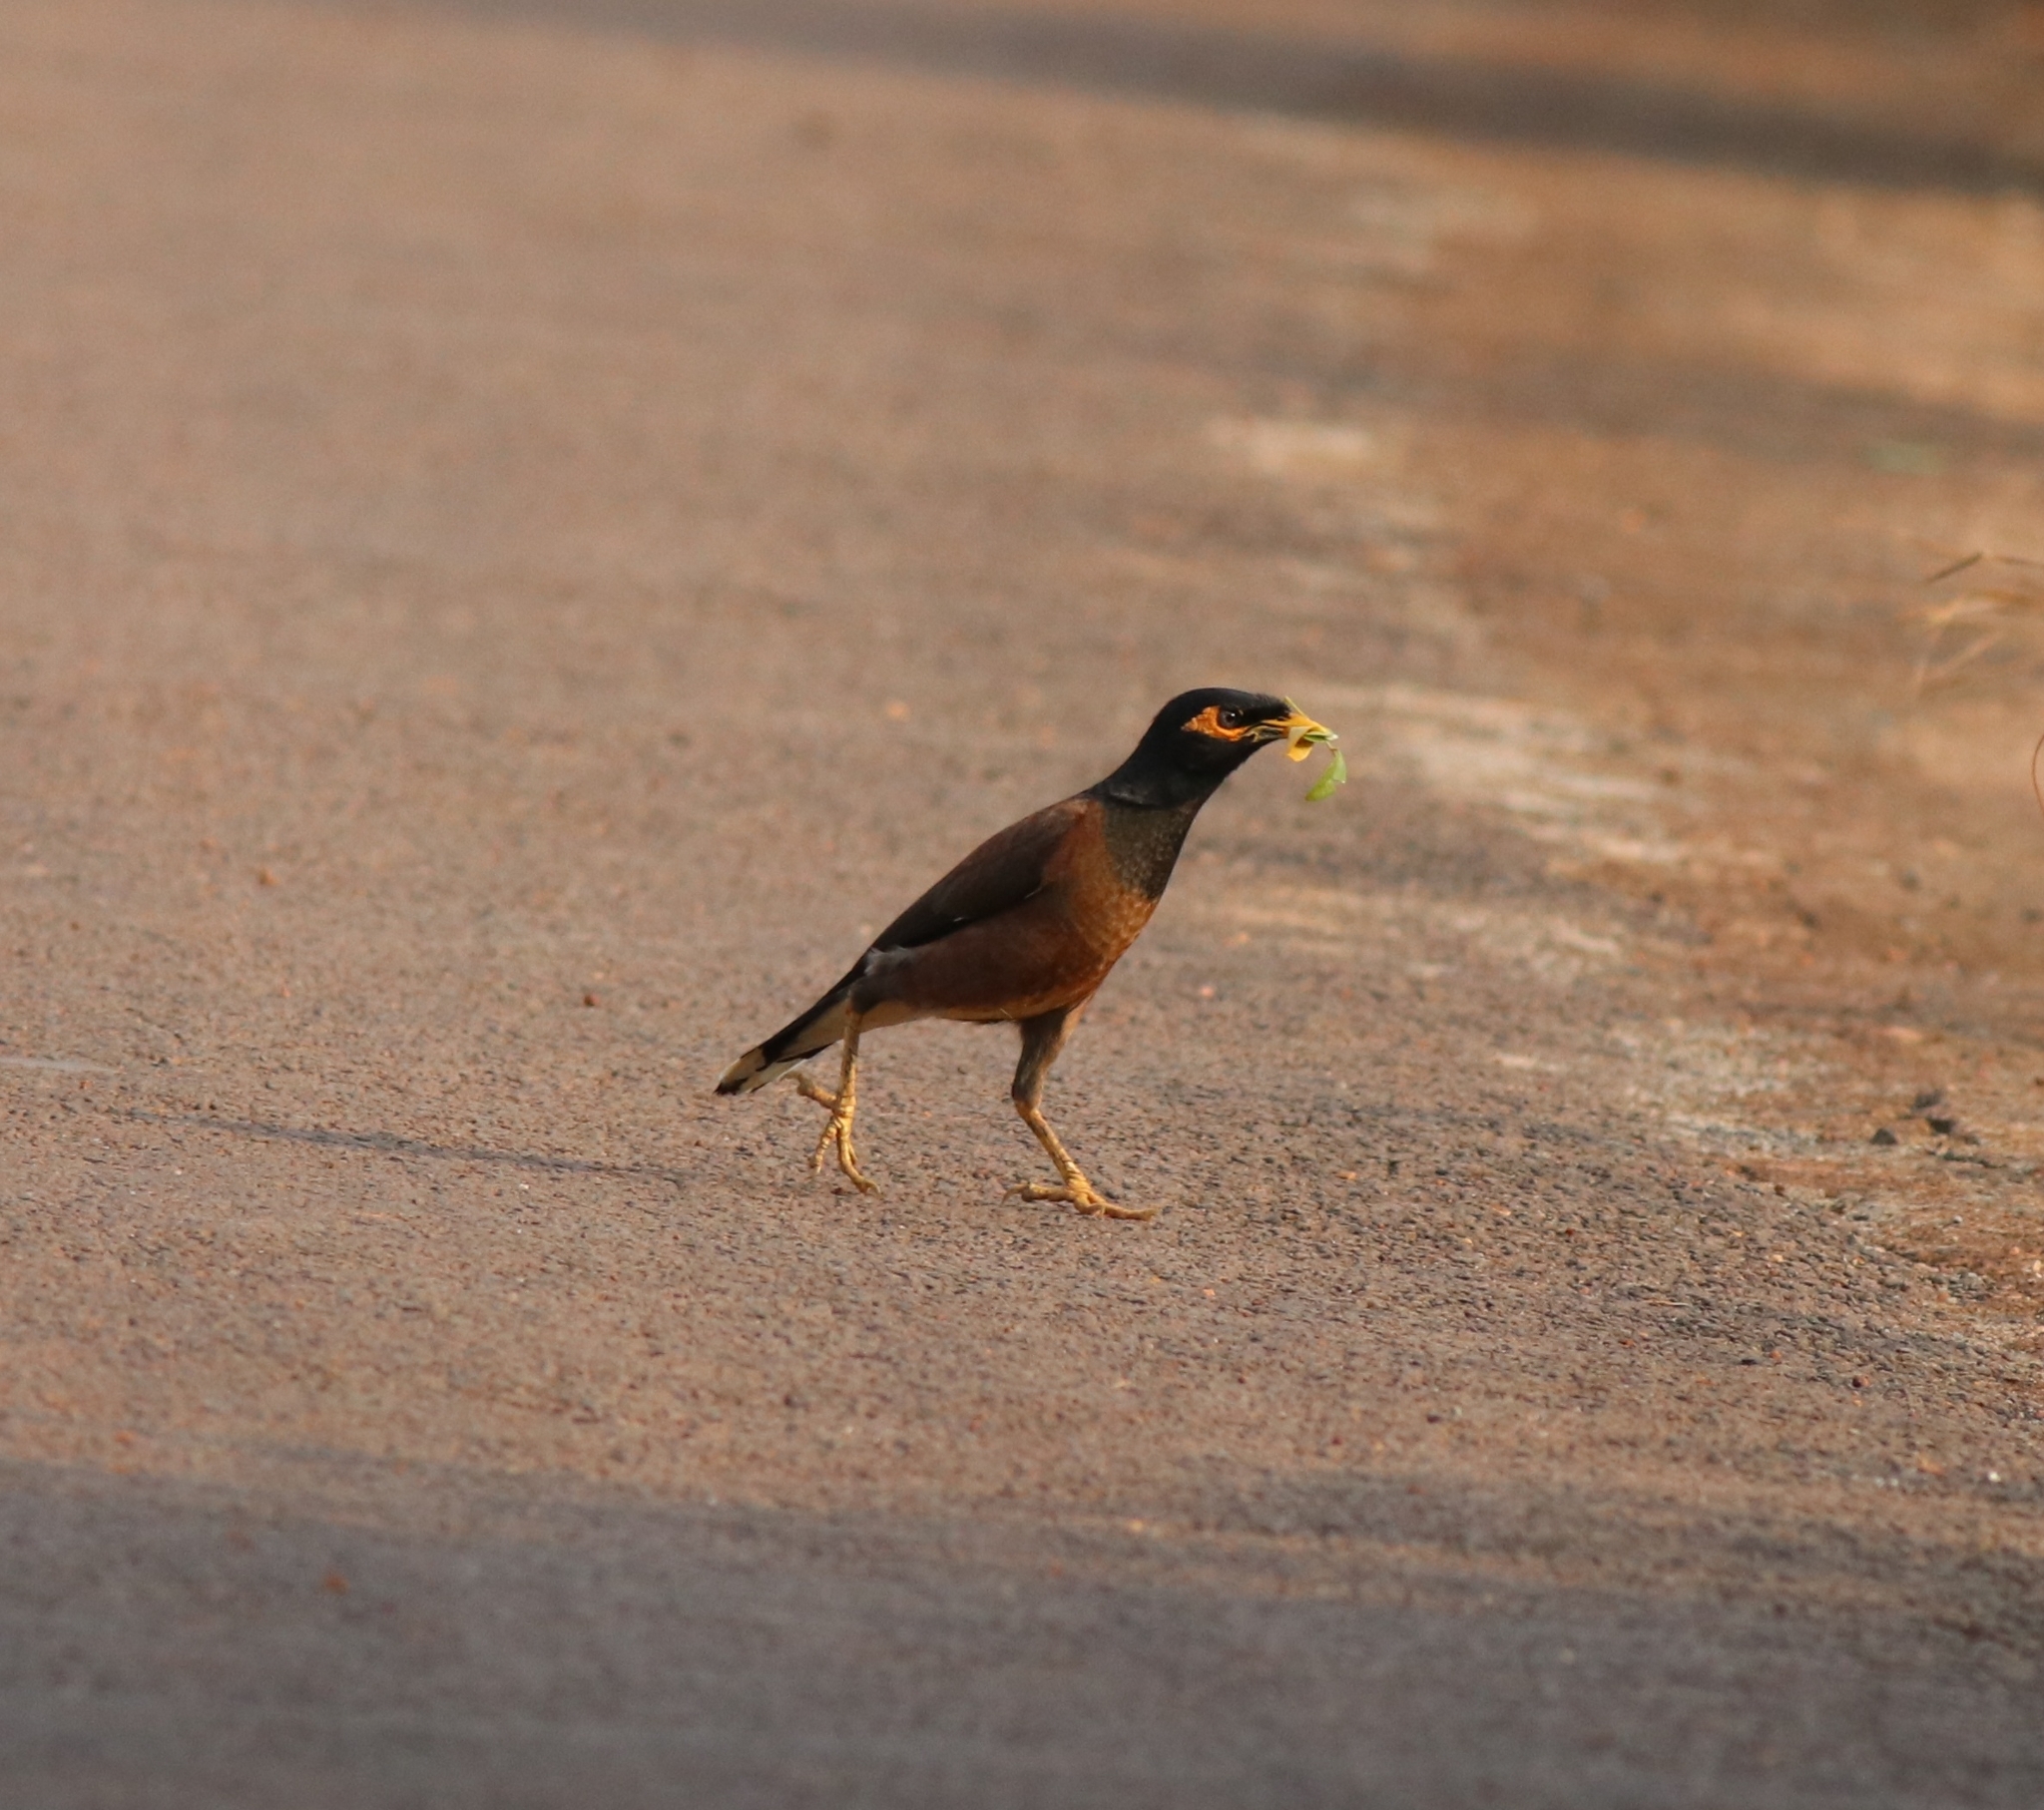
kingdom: Animalia
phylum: Chordata
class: Aves
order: Passeriformes
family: Sturnidae
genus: Acridotheres
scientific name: Acridotheres tristis
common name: Common myna
